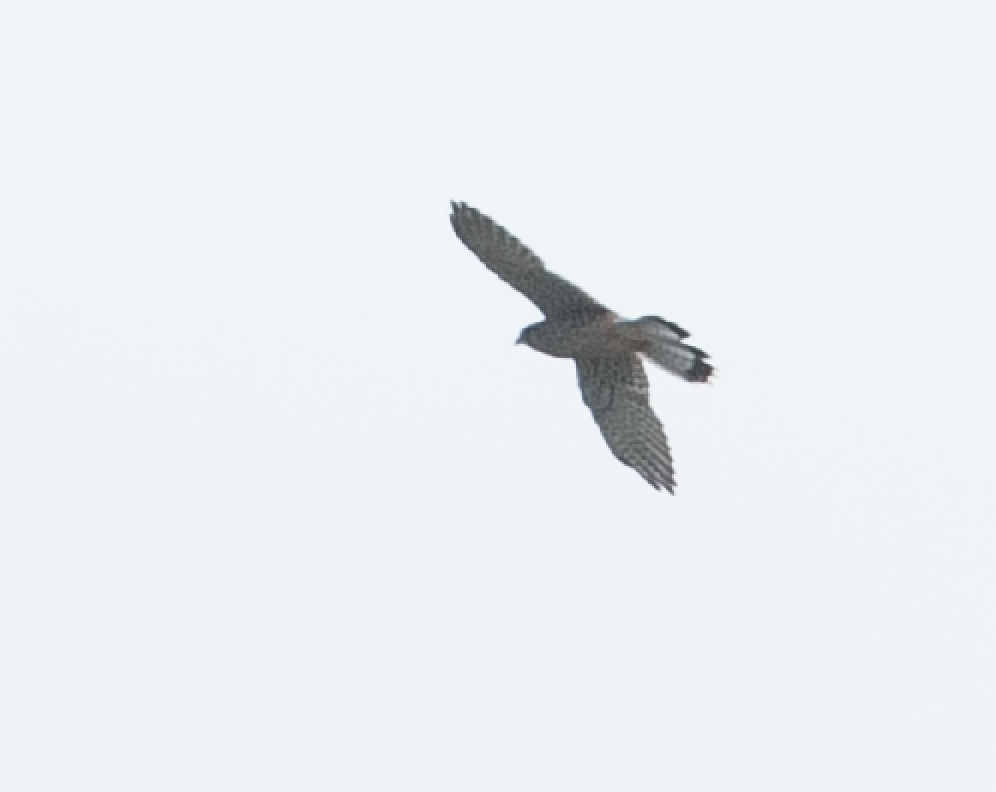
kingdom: Animalia
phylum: Chordata
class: Aves
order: Falconiformes
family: Falconidae
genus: Falco
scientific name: Falco tinnunculus
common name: Common kestrel
